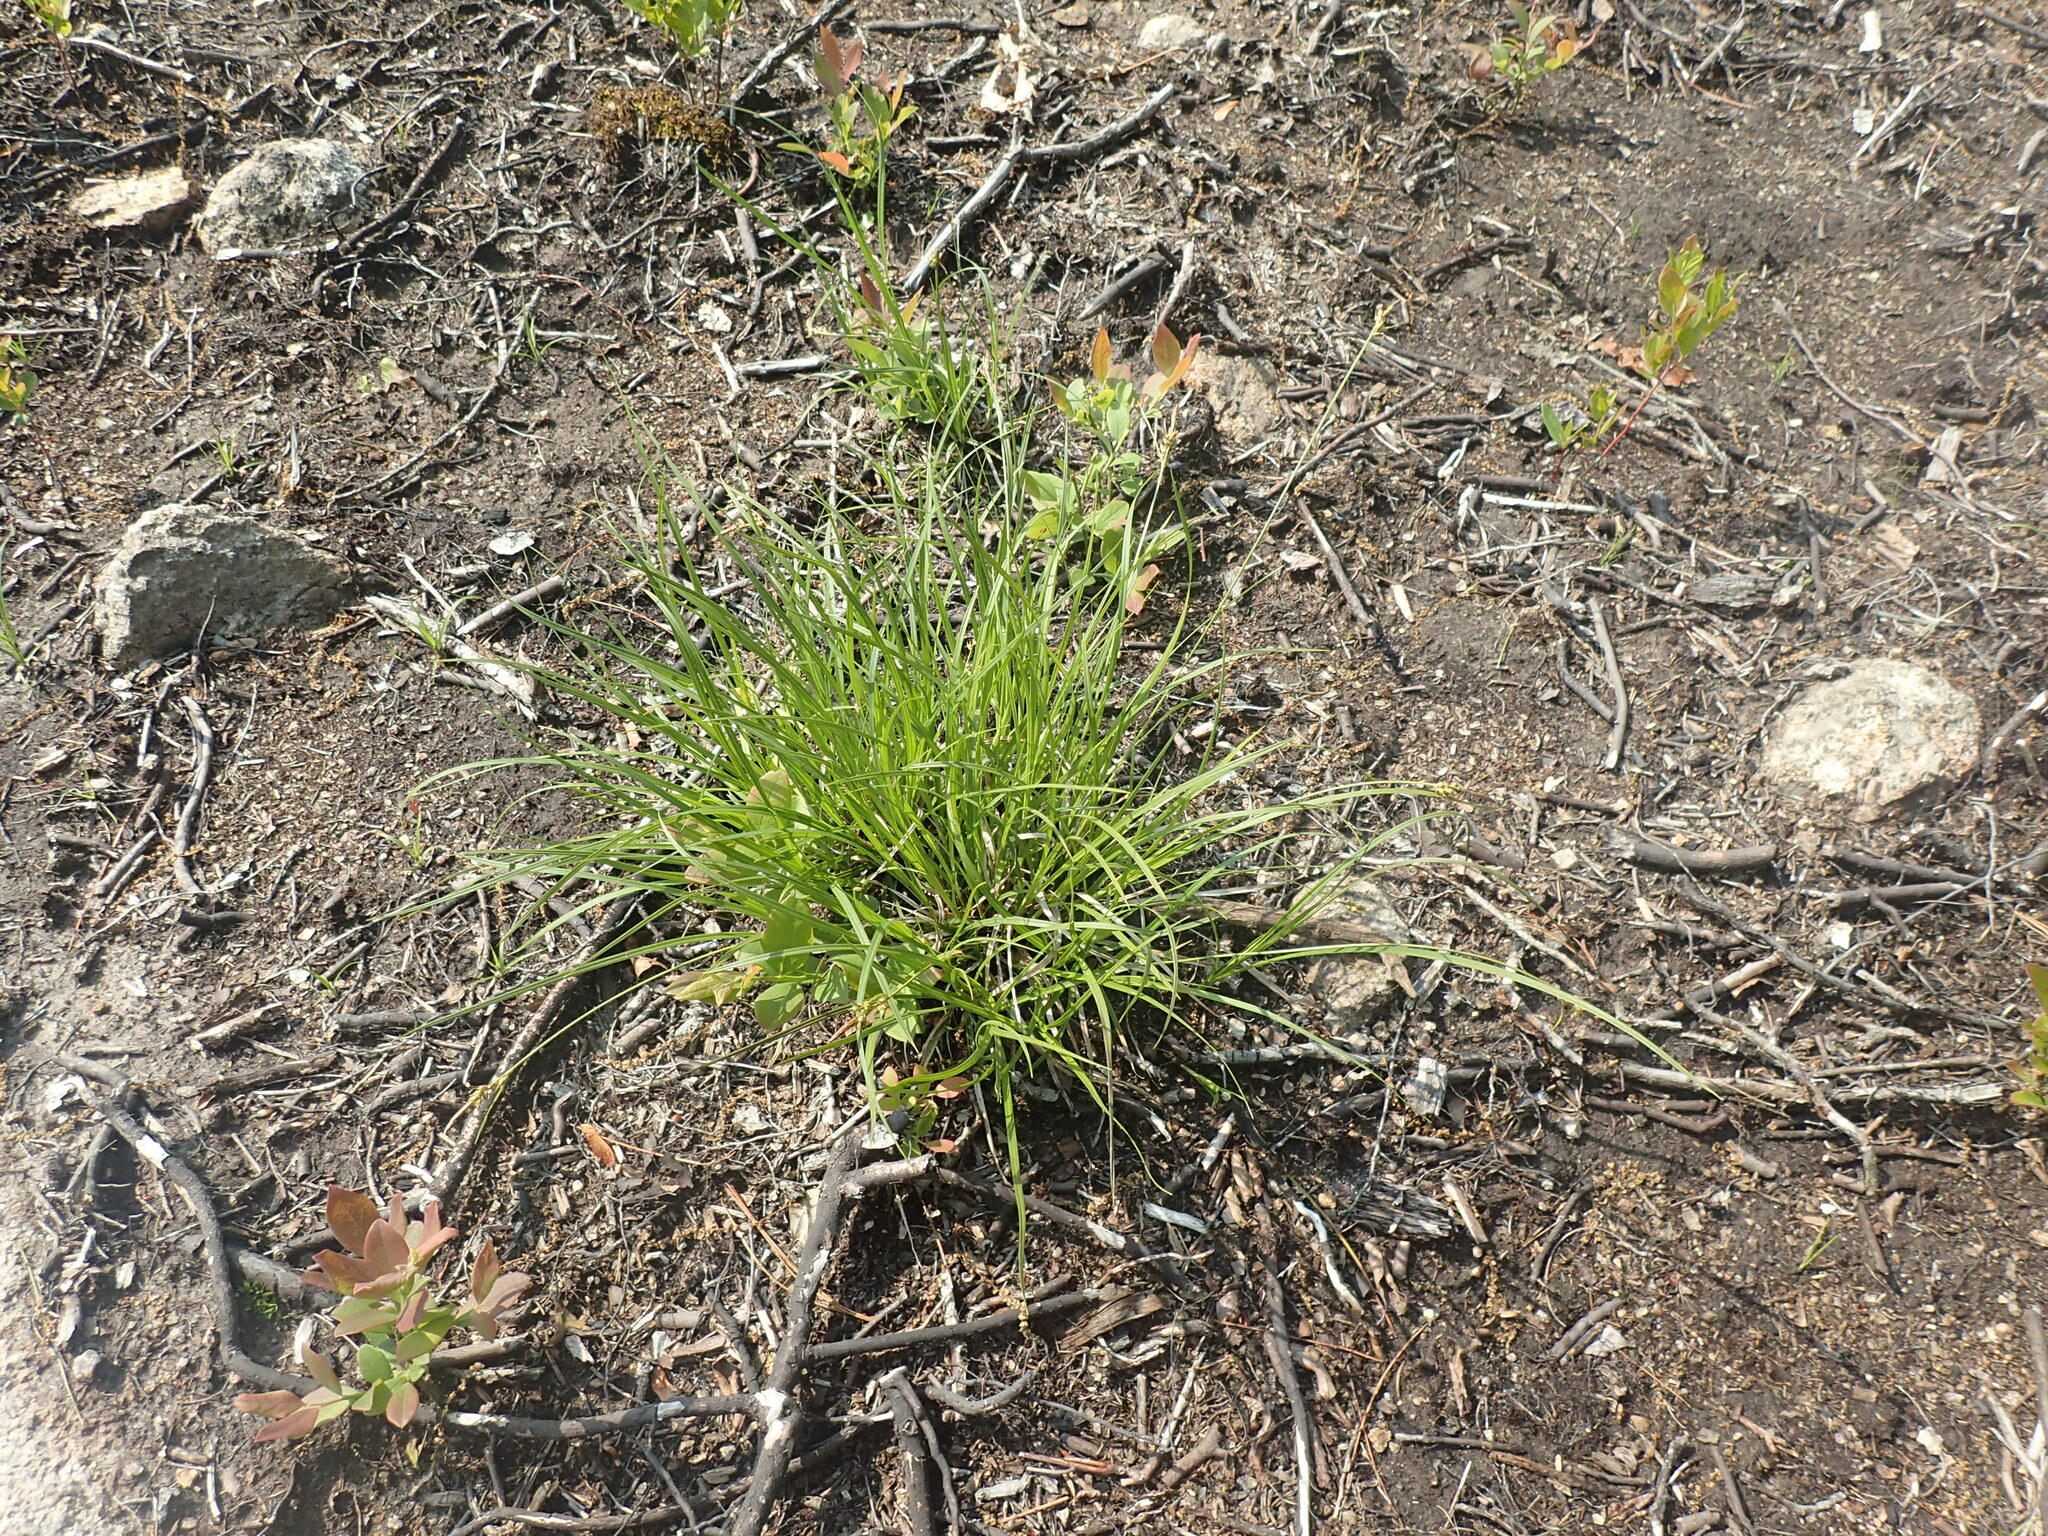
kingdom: Plantae
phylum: Tracheophyta
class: Liliopsida
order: Poales
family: Cyperaceae
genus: Carex
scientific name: Carex lucorum
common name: Blue ridge sedge
